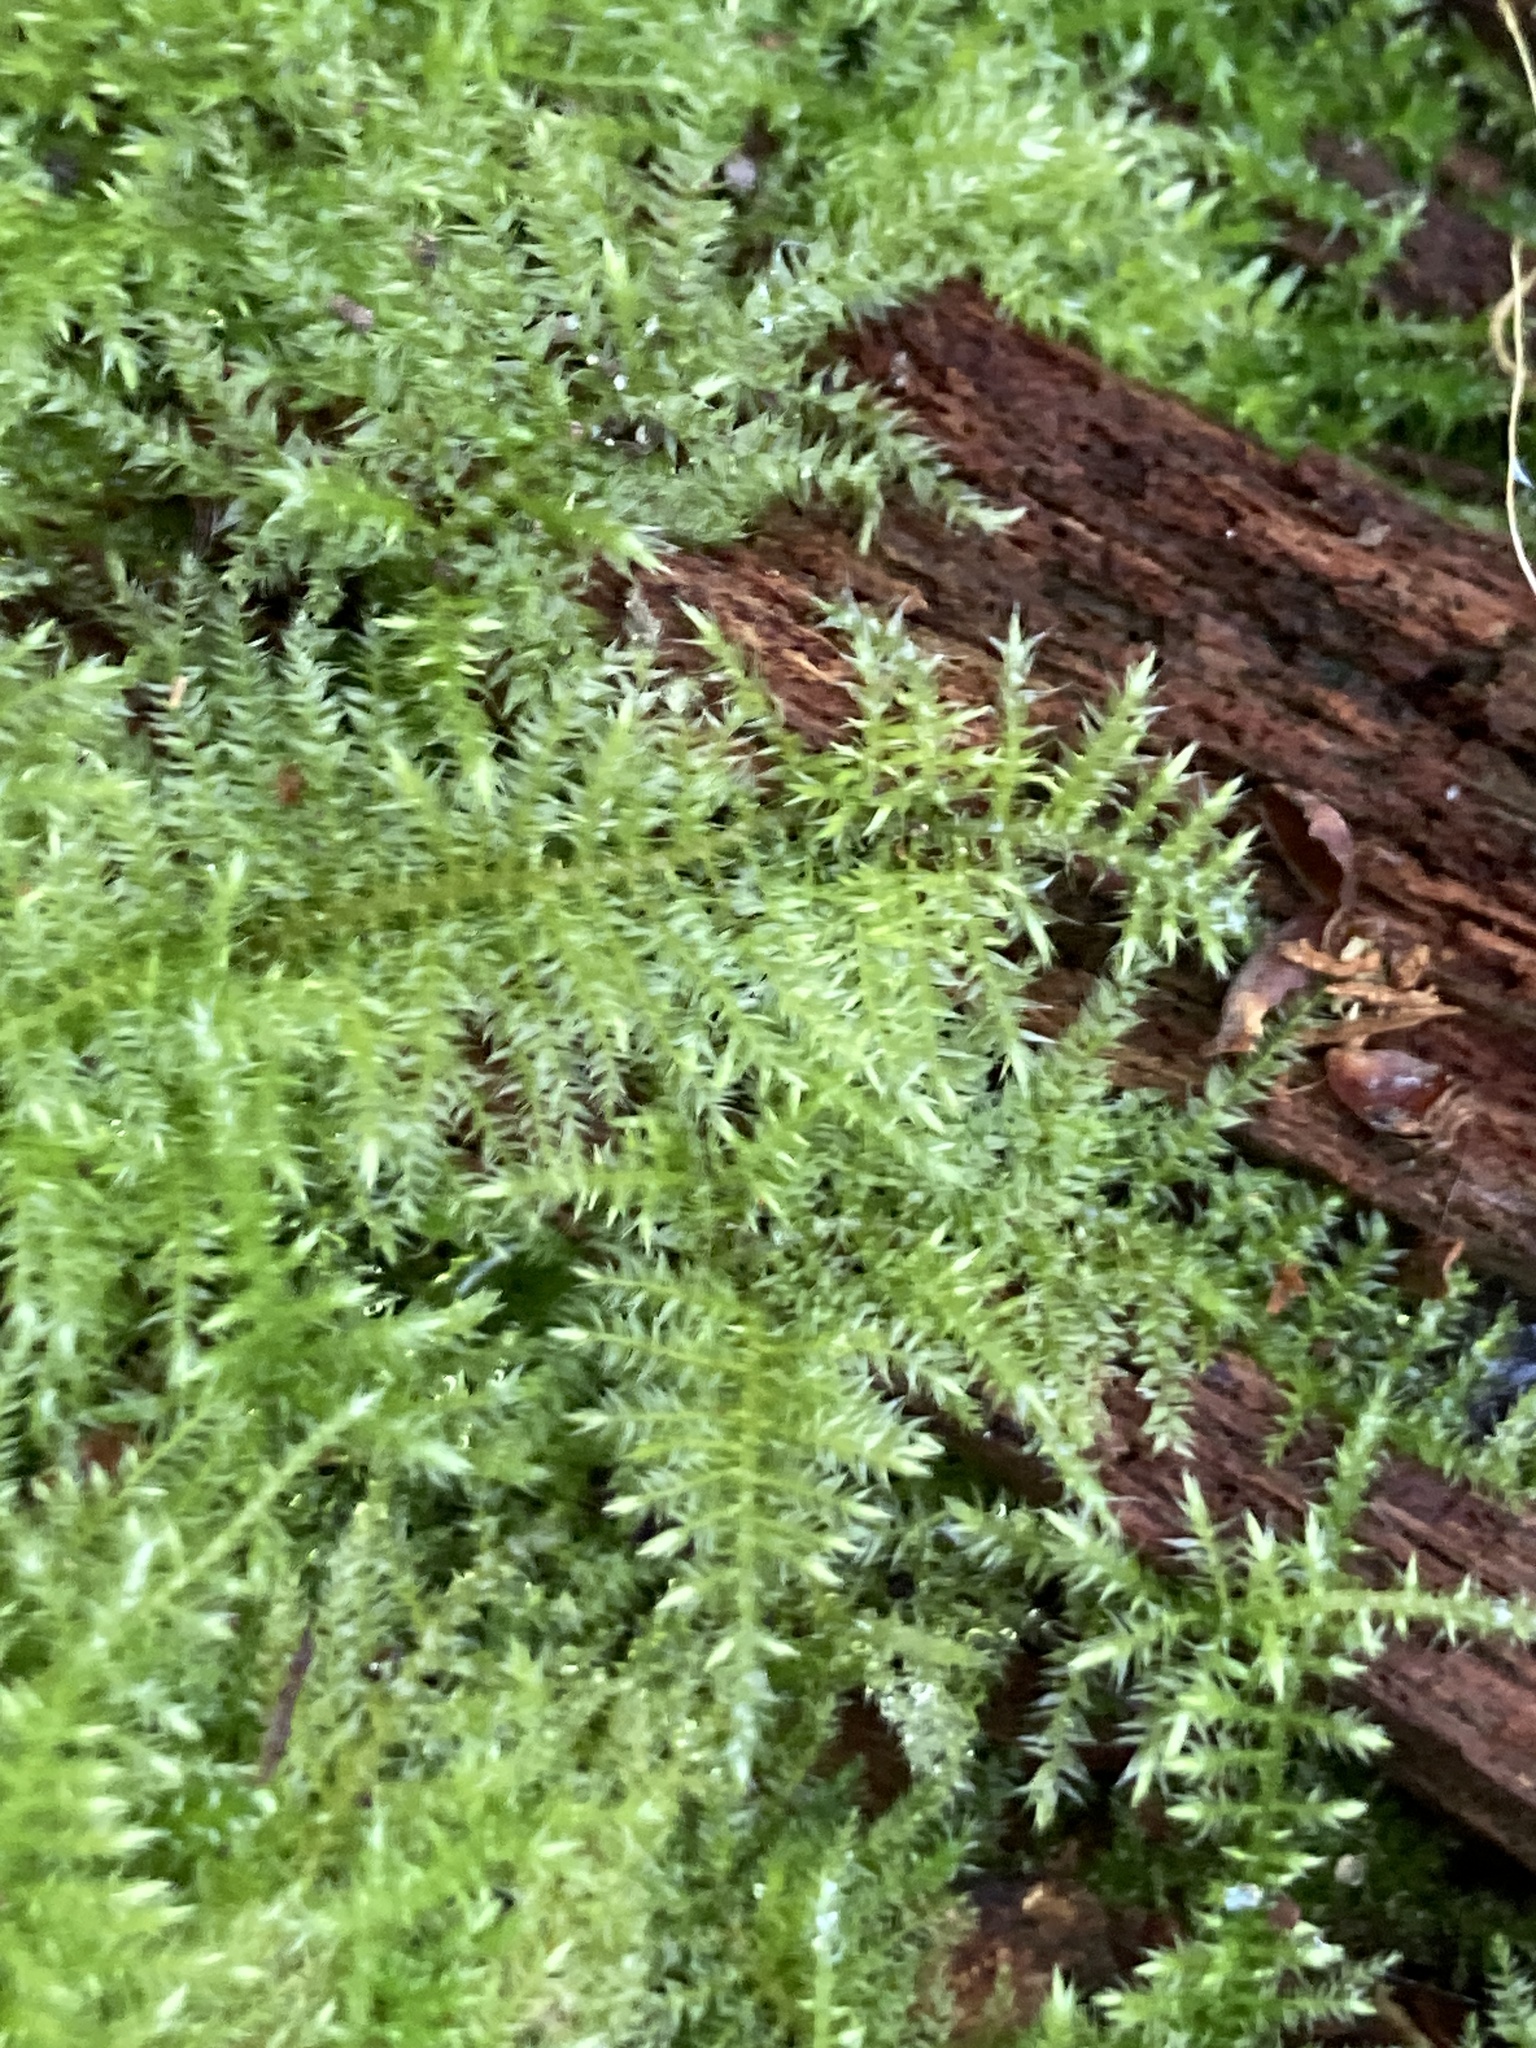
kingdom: Plantae
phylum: Bryophyta
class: Bryopsida
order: Hypnales
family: Brachytheciaceae
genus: Kindbergia
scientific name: Kindbergia praelonga
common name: Slender beaked moss
